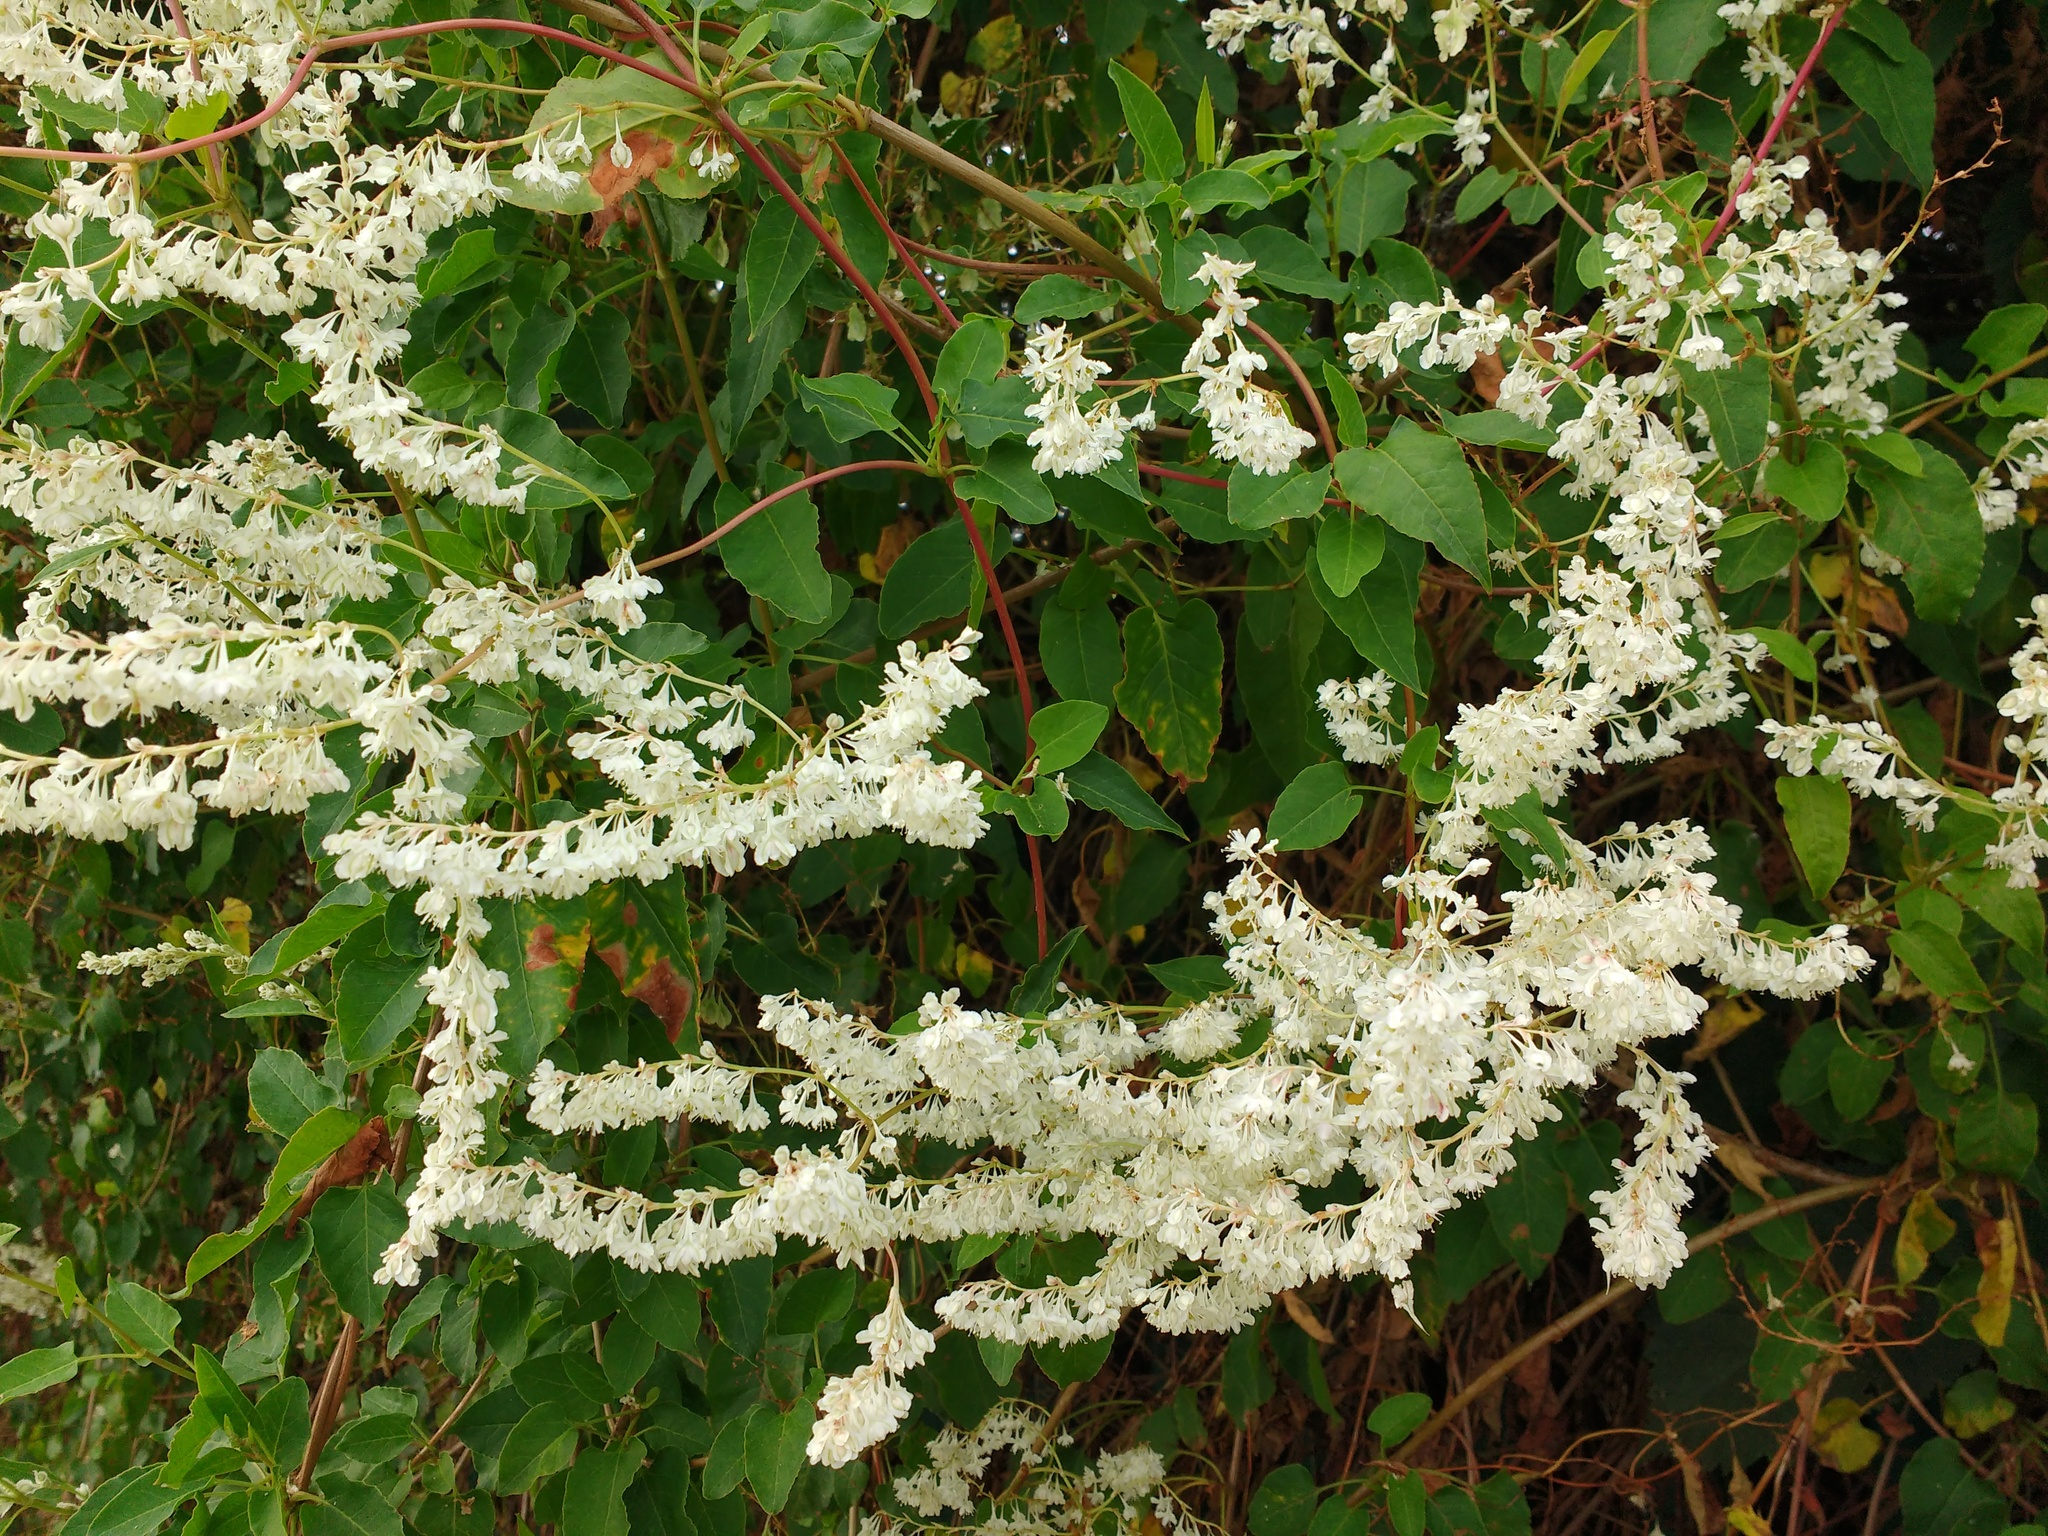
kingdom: Plantae
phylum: Tracheophyta
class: Magnoliopsida
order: Caryophyllales
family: Polygonaceae
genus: Fallopia
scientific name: Fallopia baldschuanica
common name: Russian-vine
